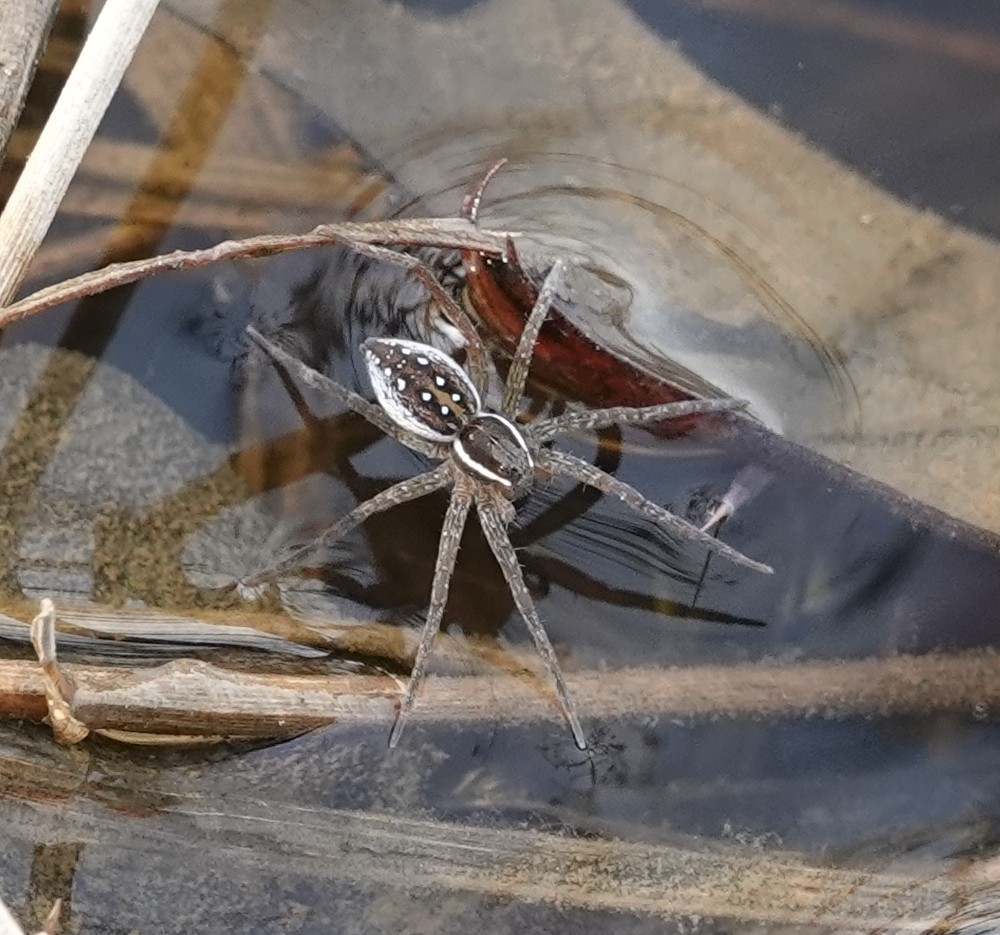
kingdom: Animalia
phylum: Arthropoda
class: Arachnida
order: Araneae
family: Pisauridae
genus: Dolomedes
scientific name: Dolomedes triton
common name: Six-spotted fishing spider
